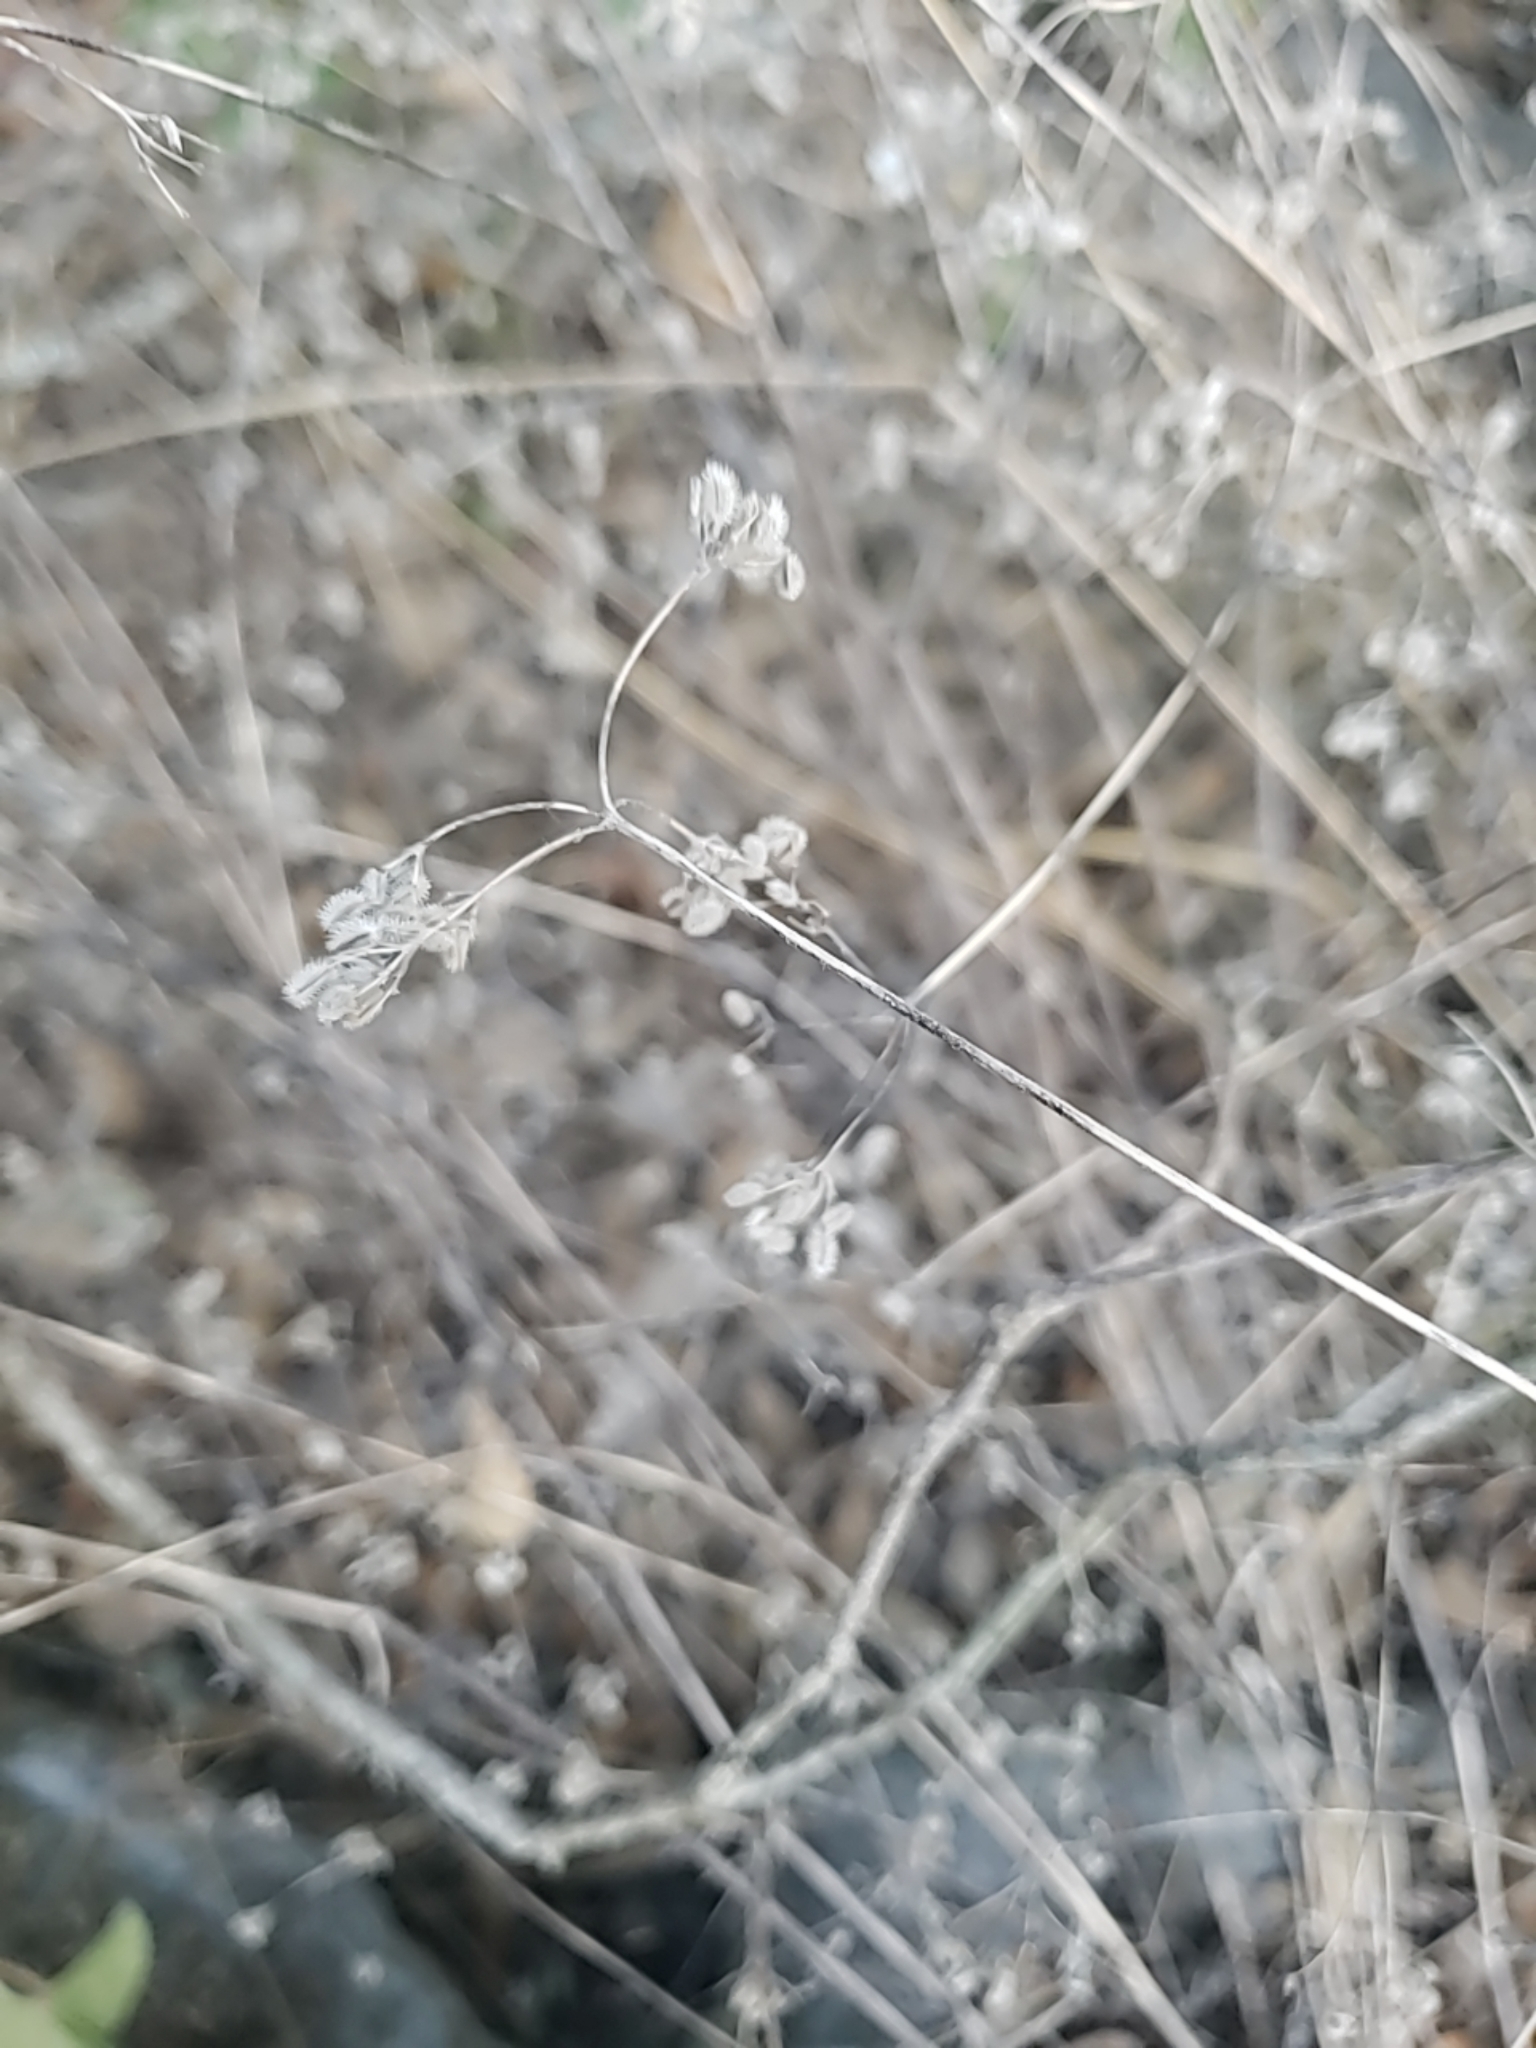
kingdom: Plantae
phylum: Tracheophyta
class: Magnoliopsida
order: Apiales
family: Apiaceae
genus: Torilis
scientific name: Torilis arvensis
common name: Spreading hedge-parsley
